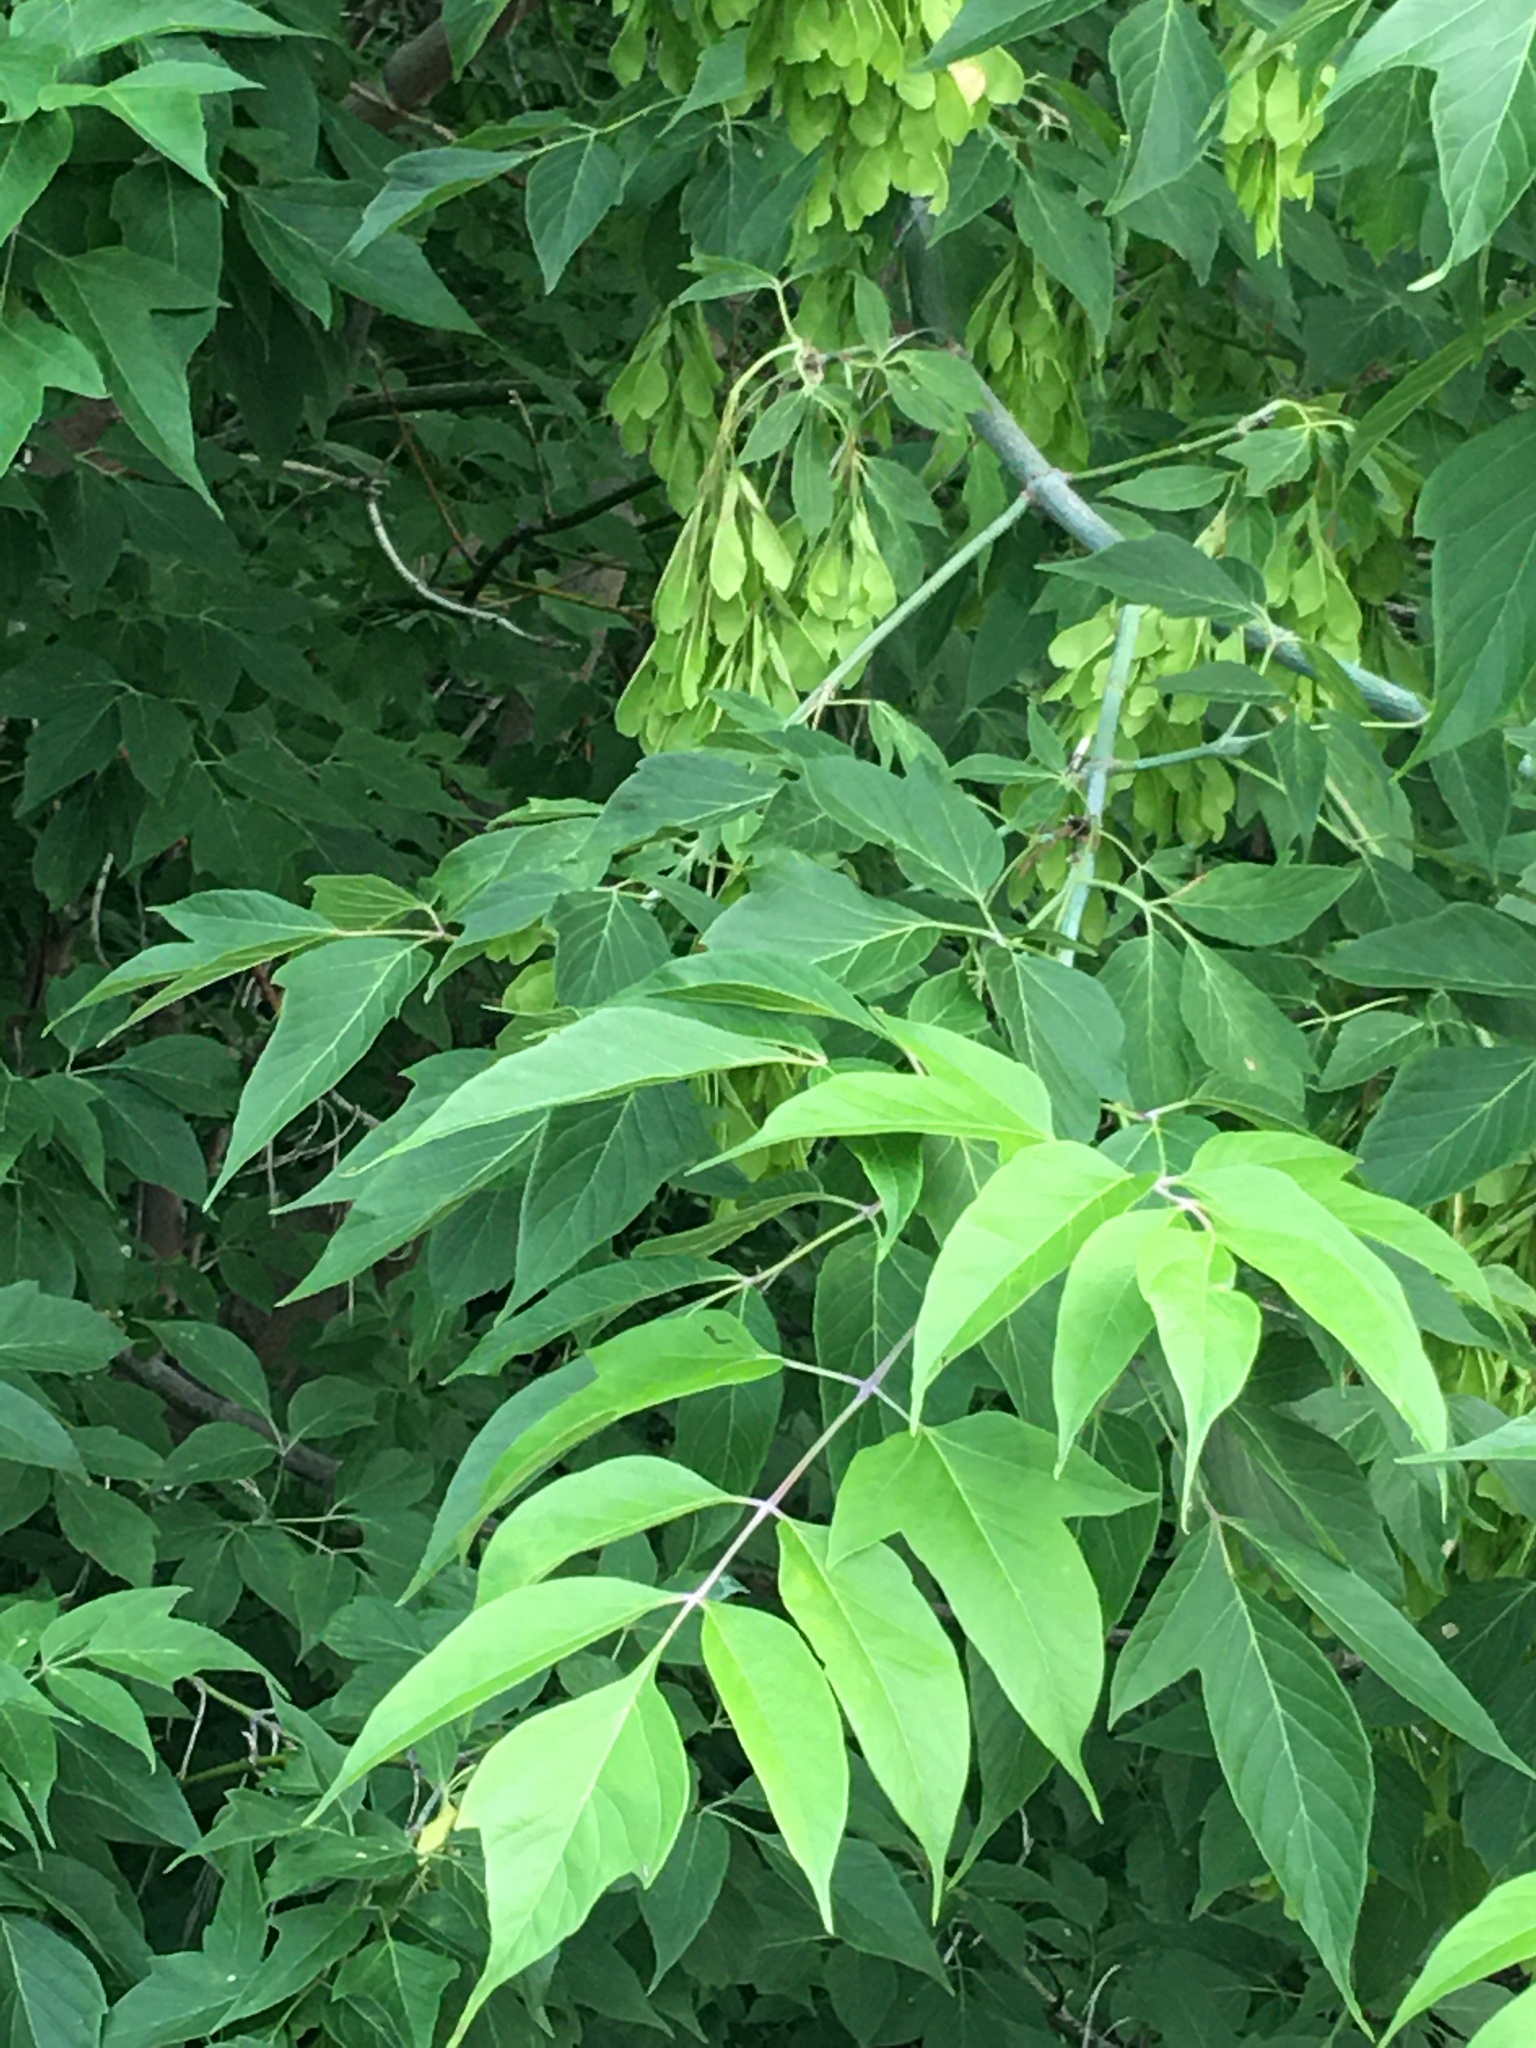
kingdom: Plantae
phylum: Tracheophyta
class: Magnoliopsida
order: Sapindales
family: Sapindaceae
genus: Acer
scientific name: Acer negundo
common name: Ashleaf maple
